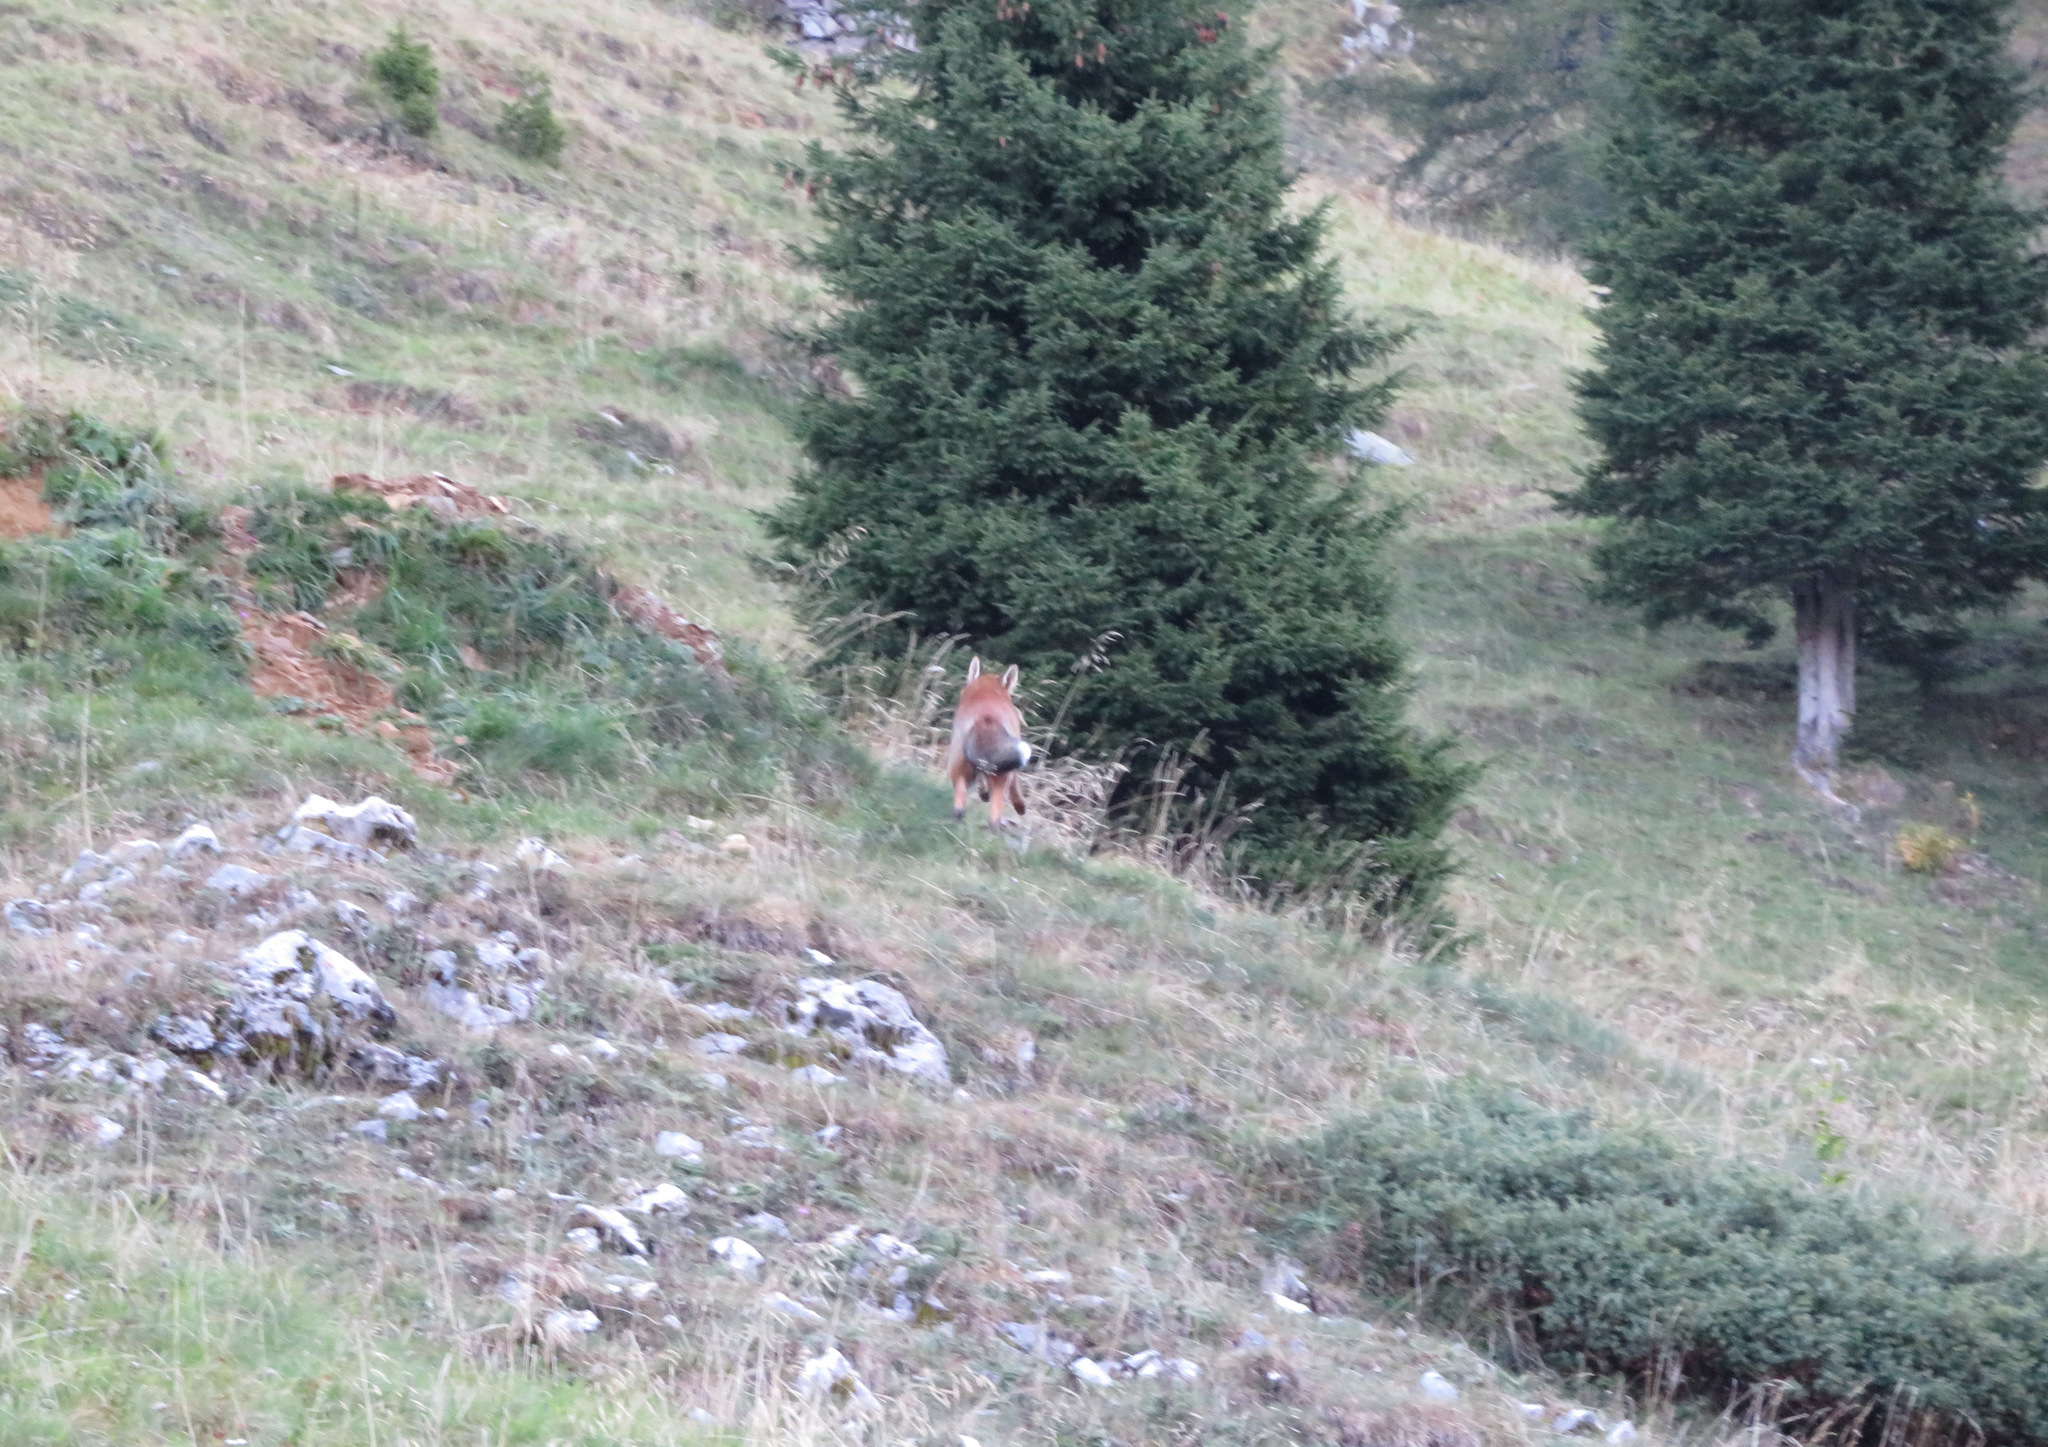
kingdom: Animalia
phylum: Chordata
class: Mammalia
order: Carnivora
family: Canidae
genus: Vulpes
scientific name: Vulpes vulpes
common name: Red fox
